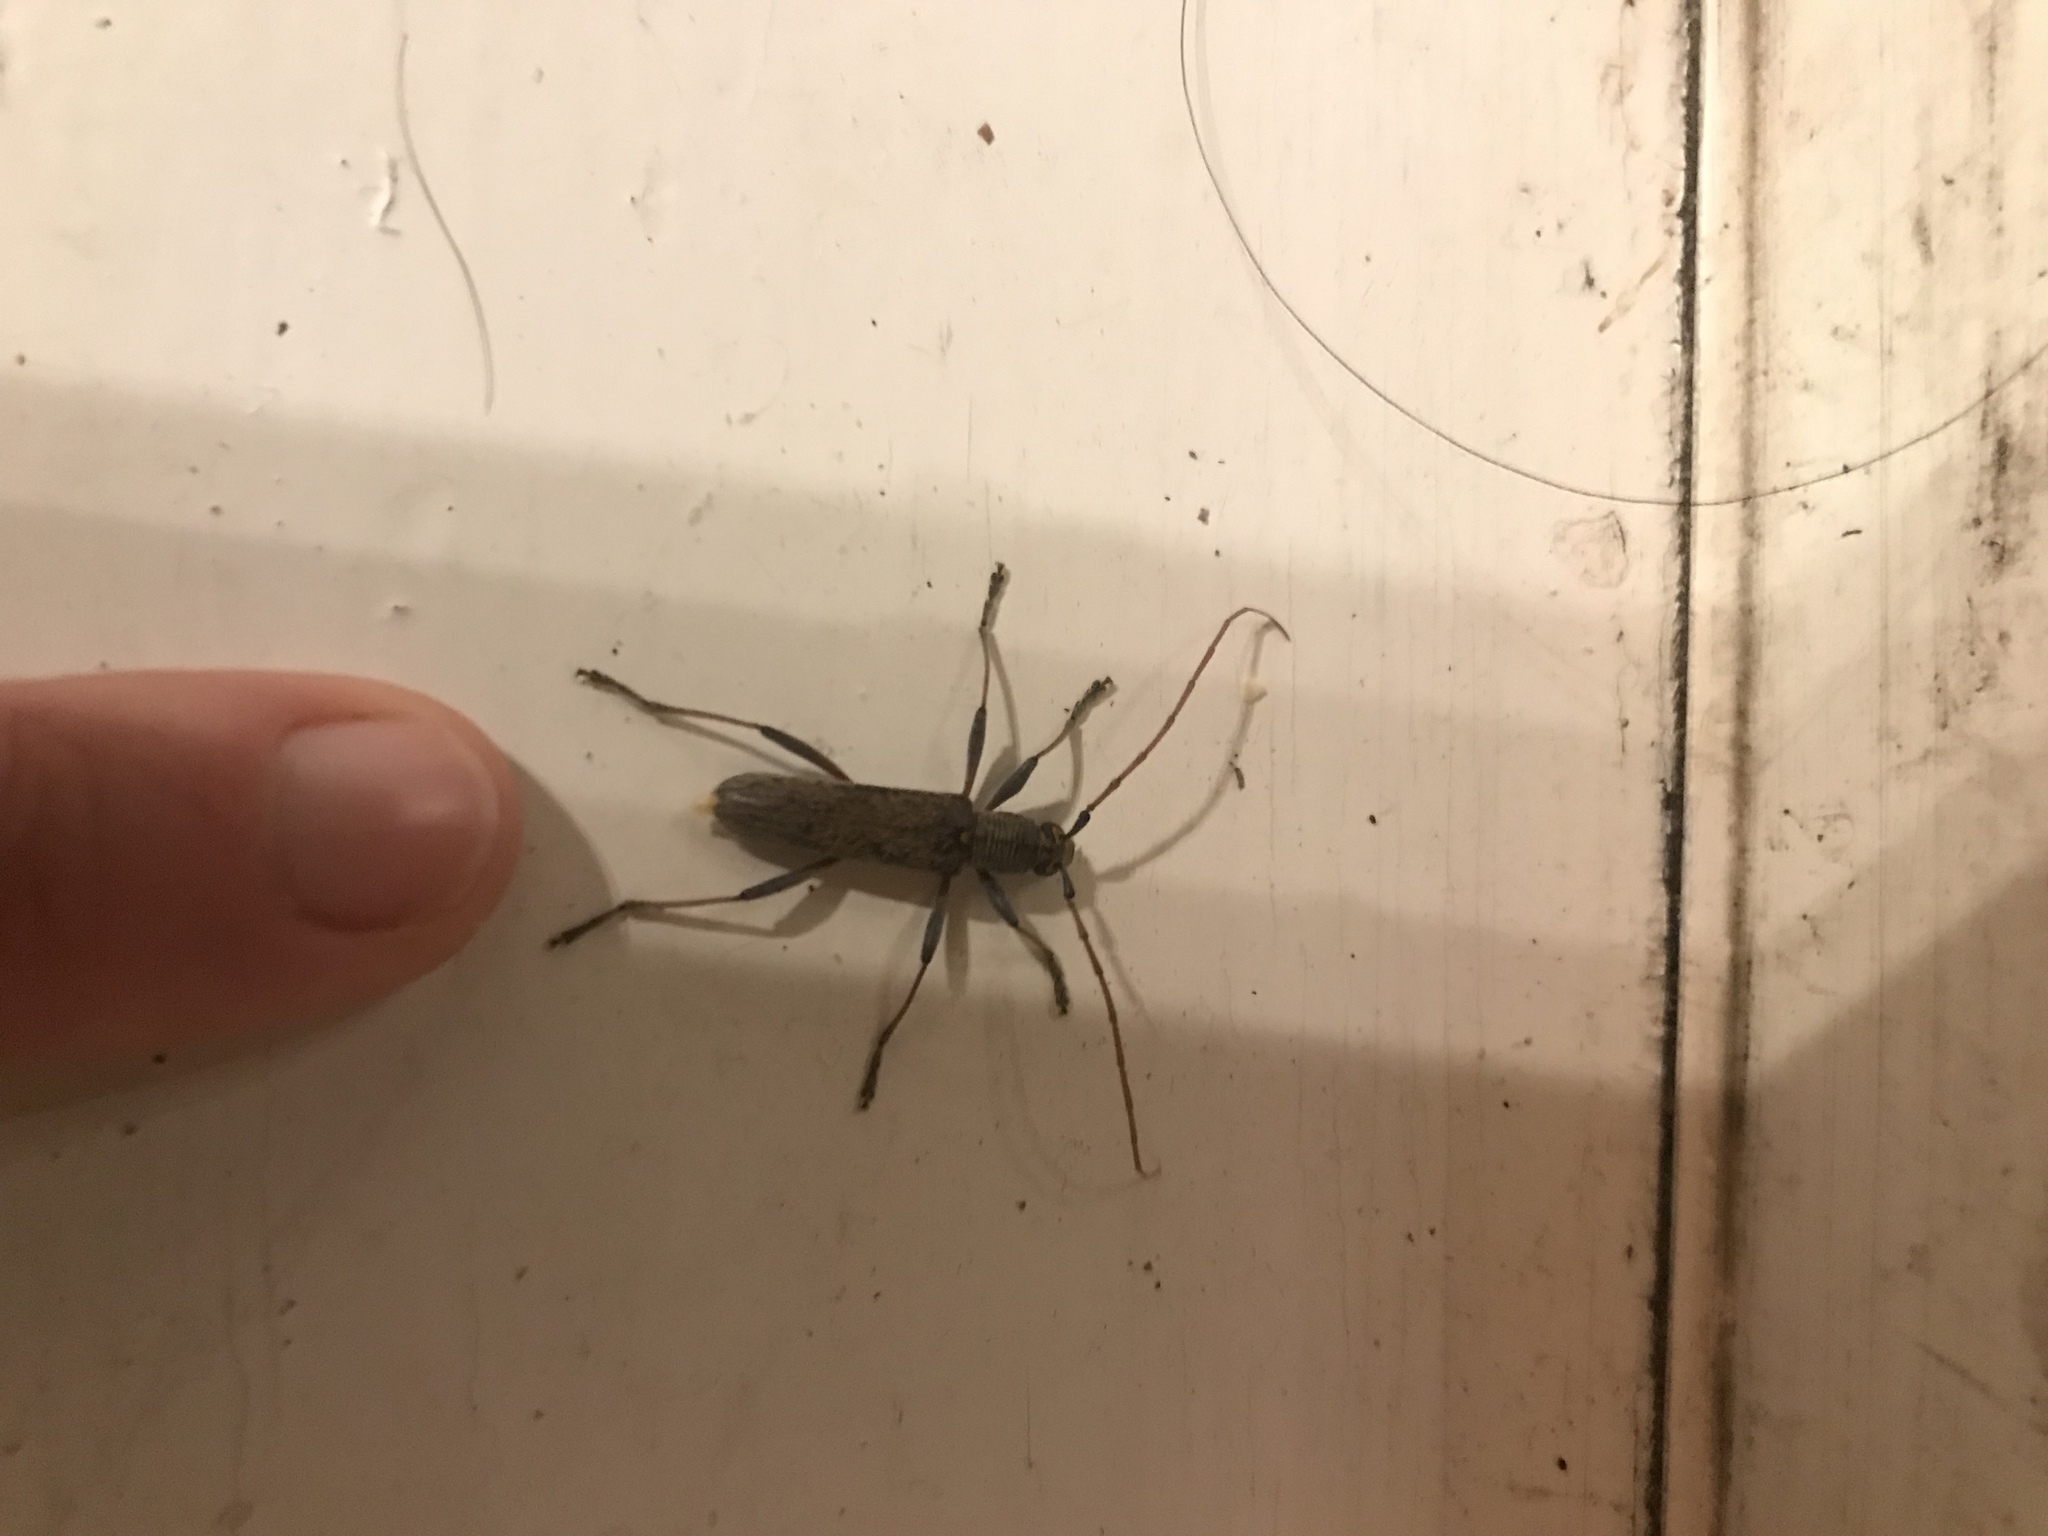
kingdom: Animalia
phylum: Arthropoda
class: Insecta
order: Coleoptera
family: Cerambycidae
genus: Oemona
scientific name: Oemona hirta
